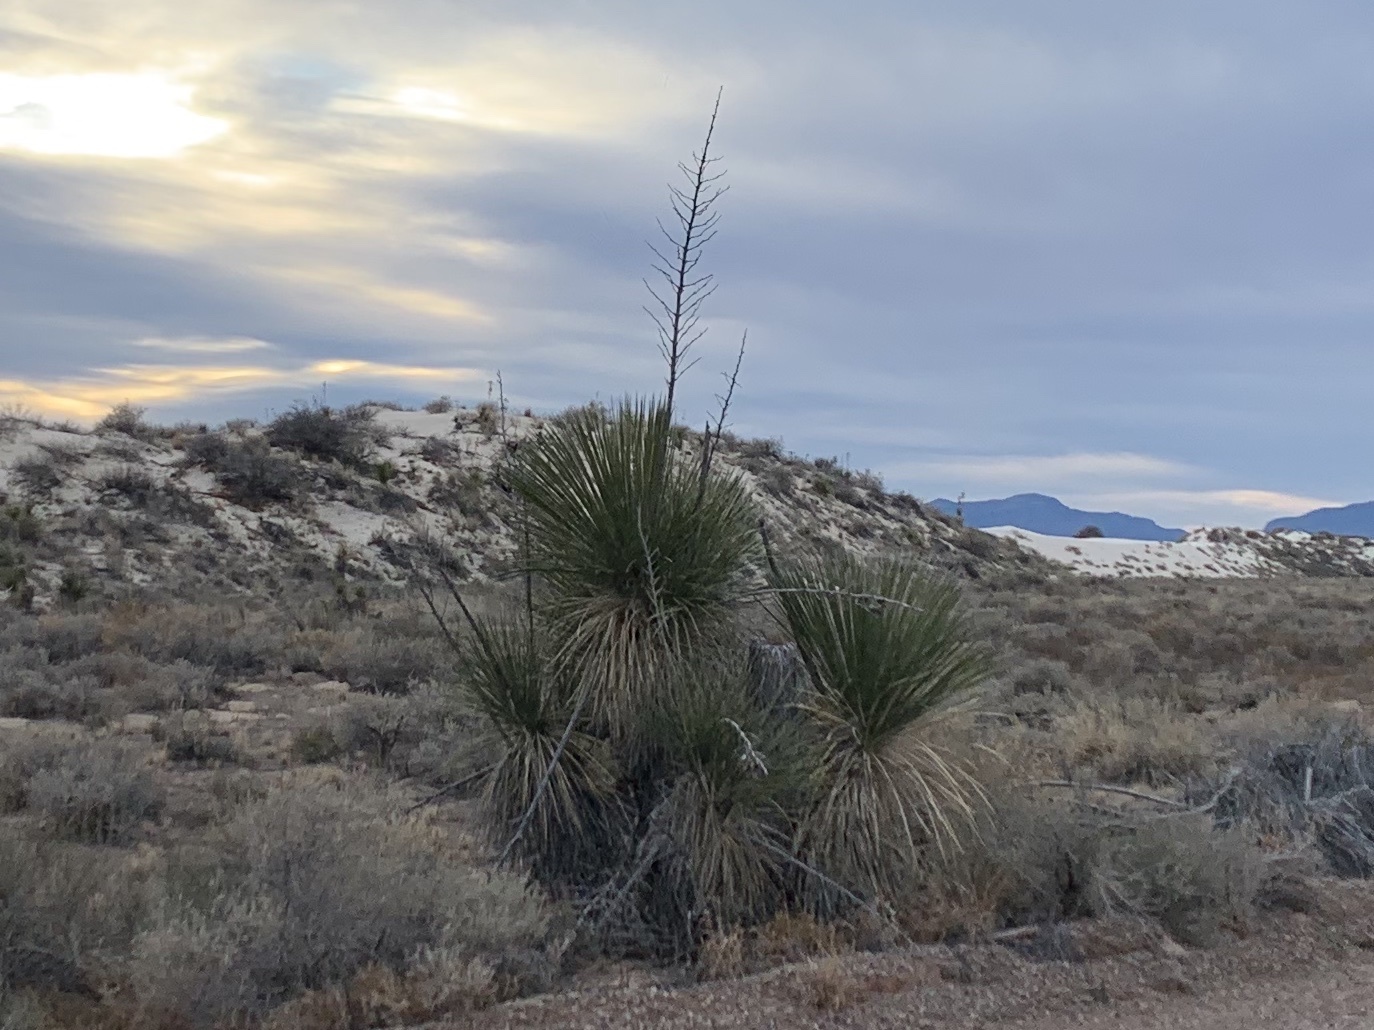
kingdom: Plantae
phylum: Tracheophyta
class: Liliopsida
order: Asparagales
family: Asparagaceae
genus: Yucca
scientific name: Yucca elata
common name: Palmella
